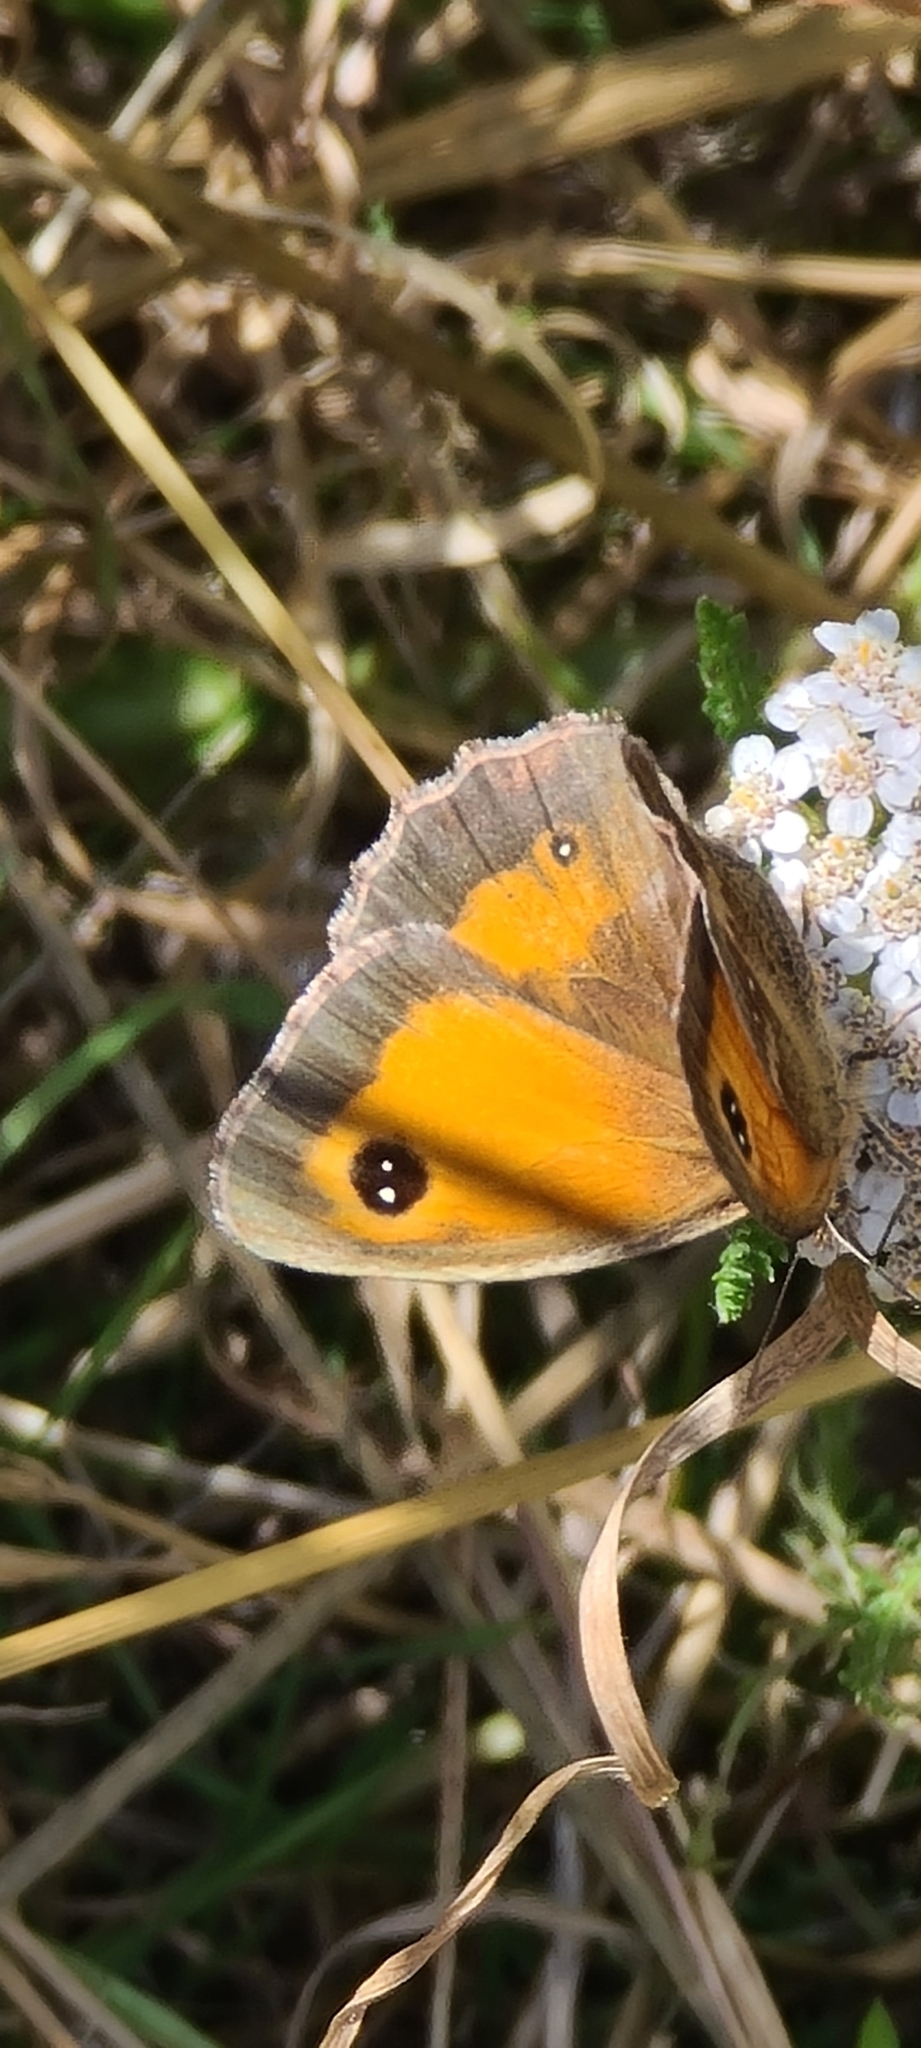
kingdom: Animalia
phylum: Arthropoda
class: Insecta
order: Lepidoptera
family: Nymphalidae
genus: Pyronia
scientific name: Pyronia tithonus
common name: Gatekeeper
